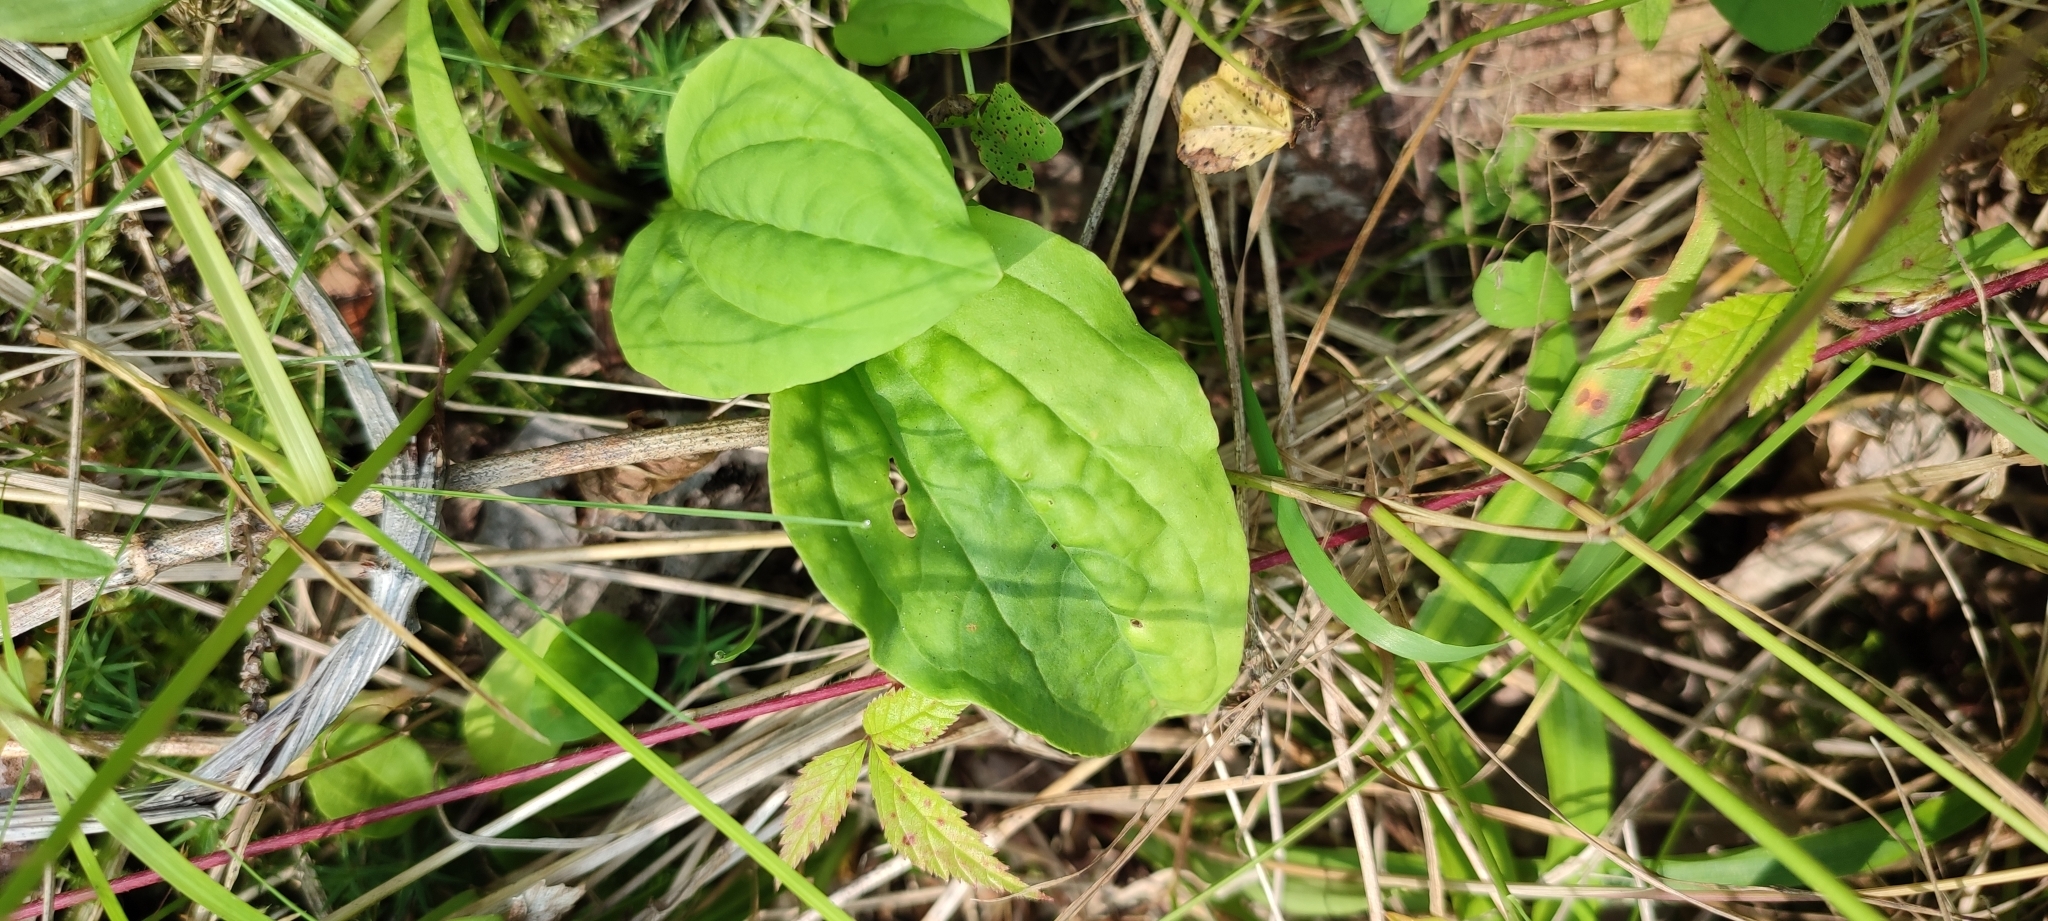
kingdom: Plantae
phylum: Tracheophyta
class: Magnoliopsida
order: Lamiales
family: Plantaginaceae
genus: Plantago
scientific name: Plantago major
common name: Common plantain
